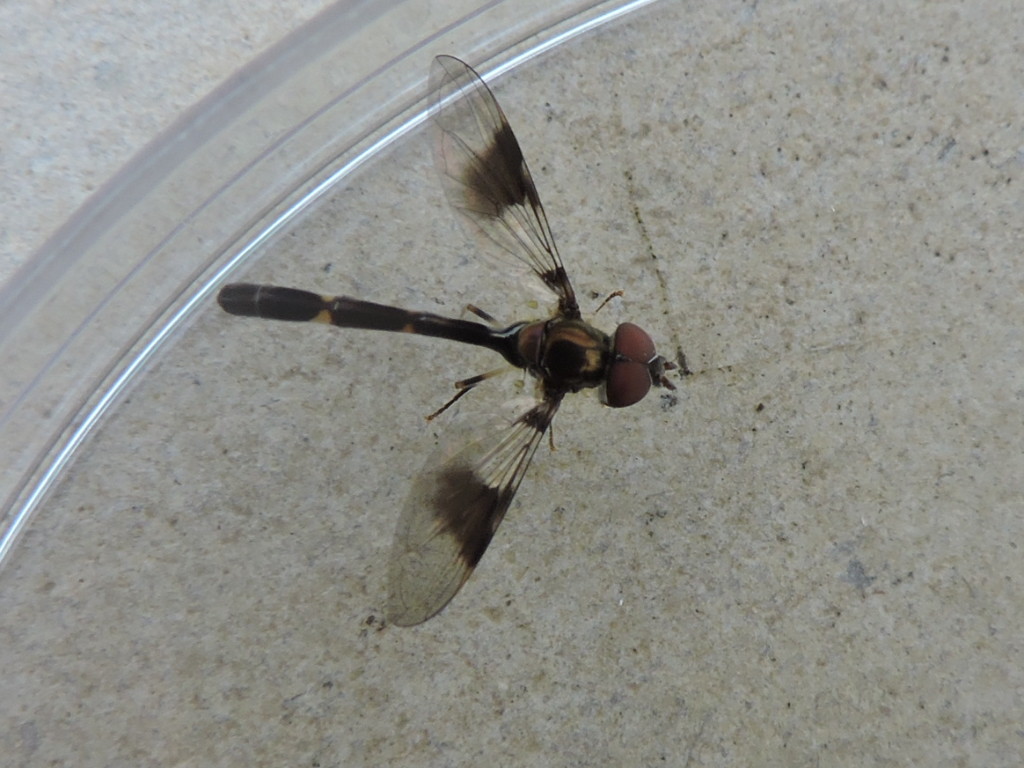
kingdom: Animalia
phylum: Arthropoda
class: Insecta
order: Diptera
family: Syrphidae
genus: Hypocritanus
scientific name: Hypocritanus fascipennis
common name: Eastern band-winged hover fly
